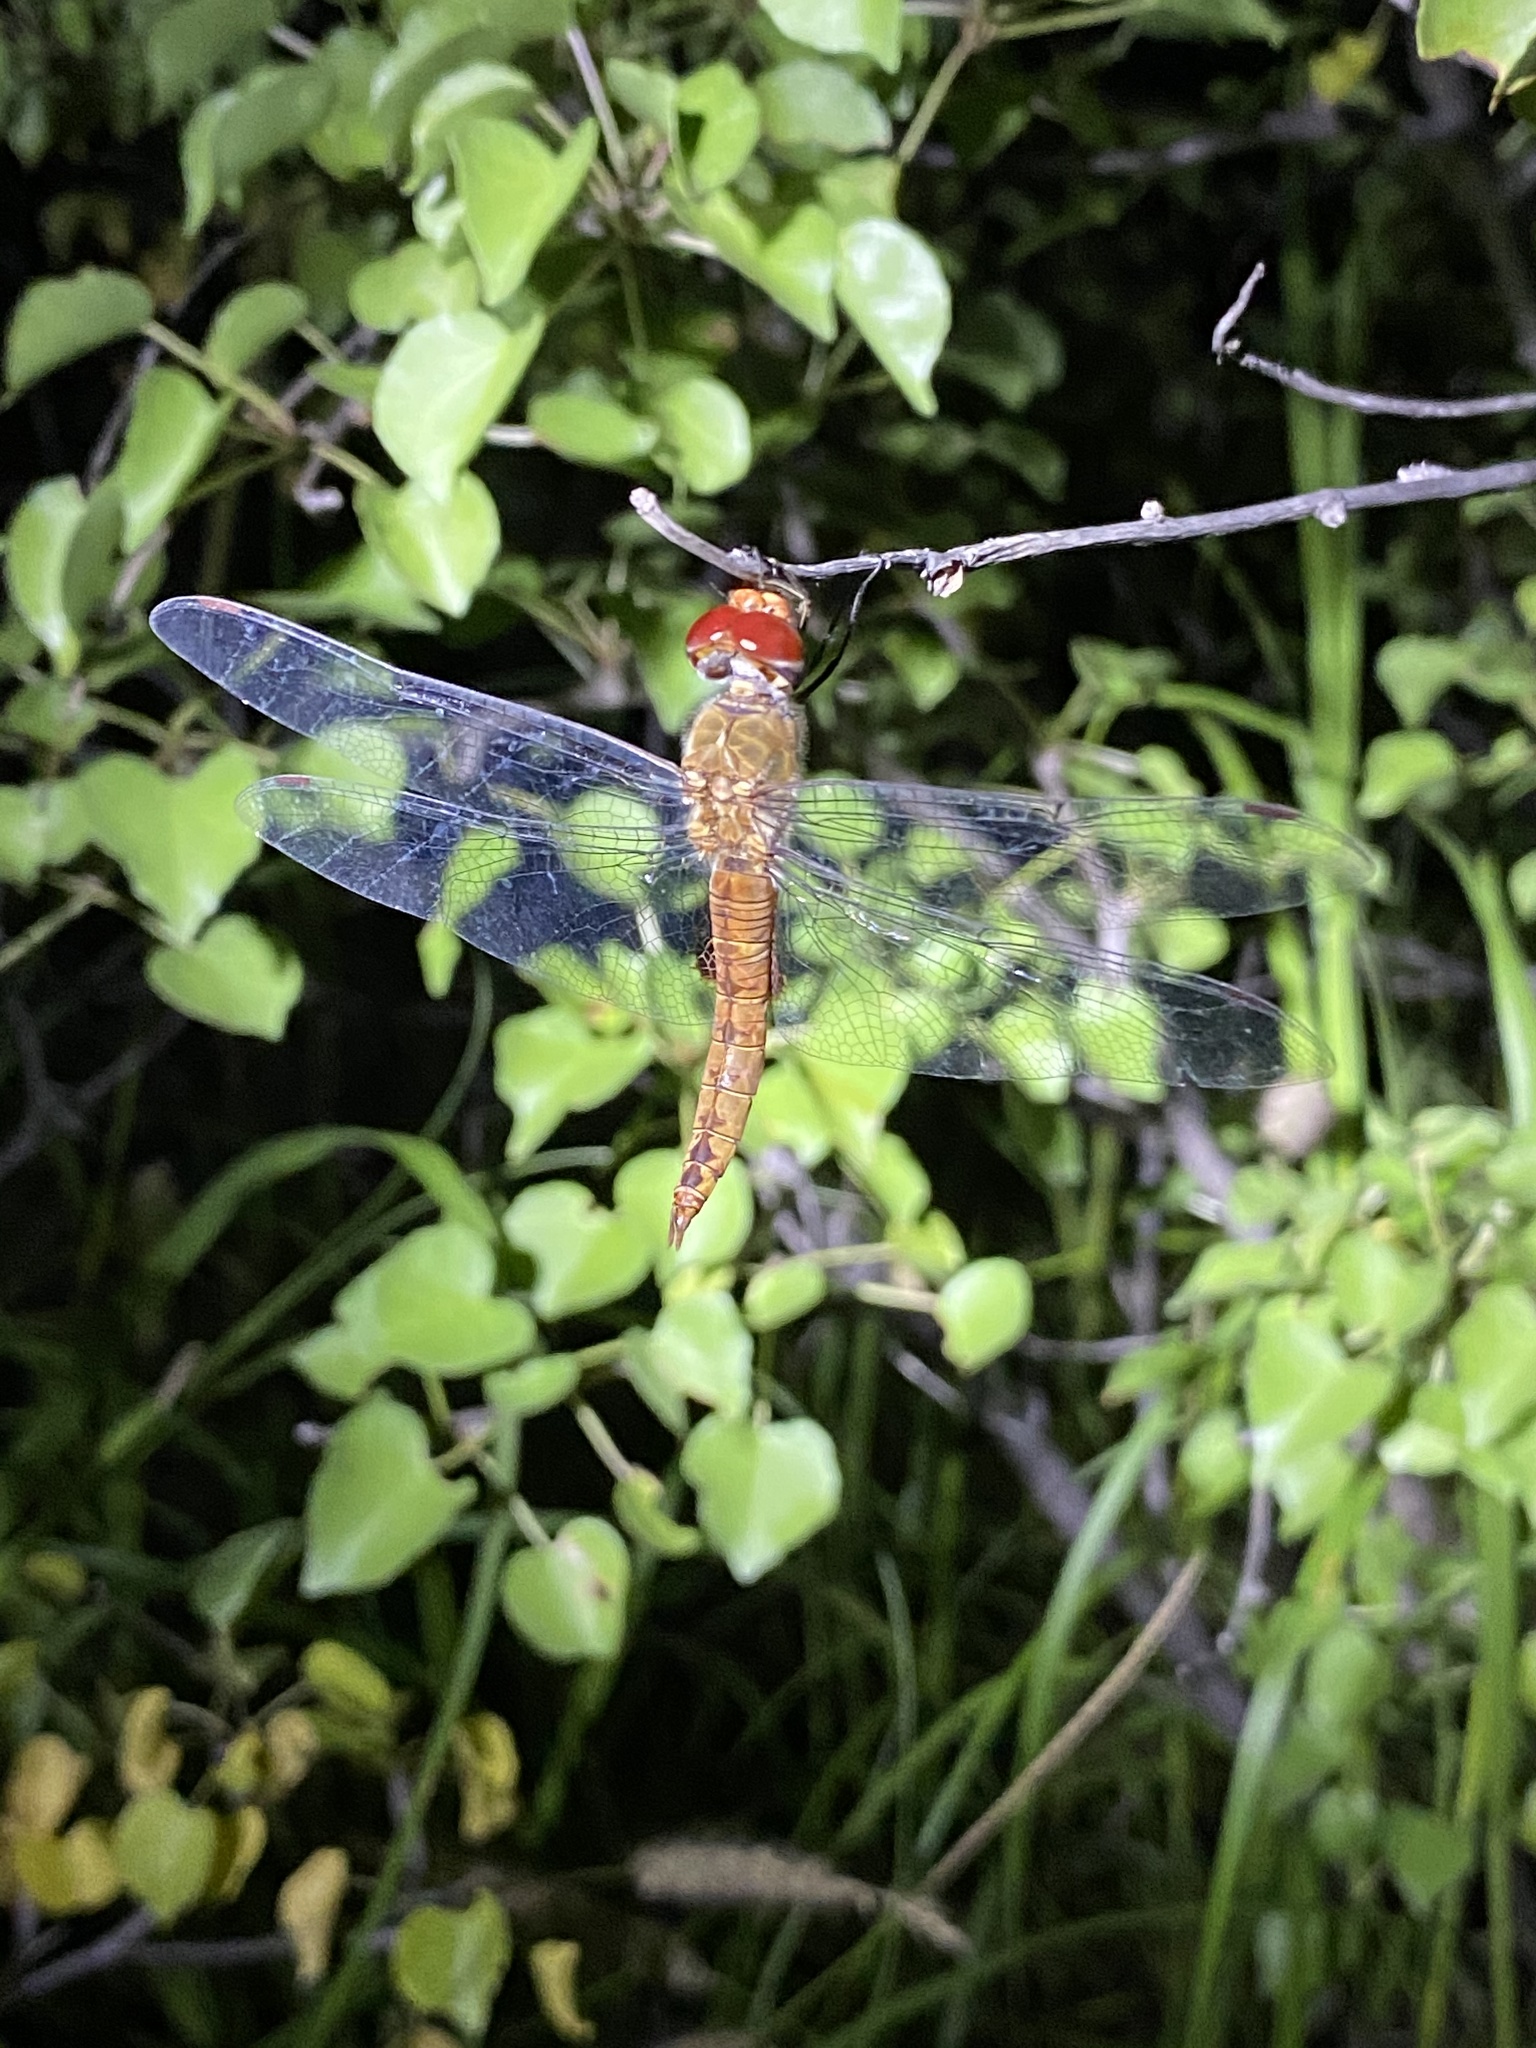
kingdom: Animalia
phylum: Arthropoda
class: Insecta
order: Odonata
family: Libellulidae
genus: Pantala
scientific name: Pantala hymenaea
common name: Spot-winged glider
